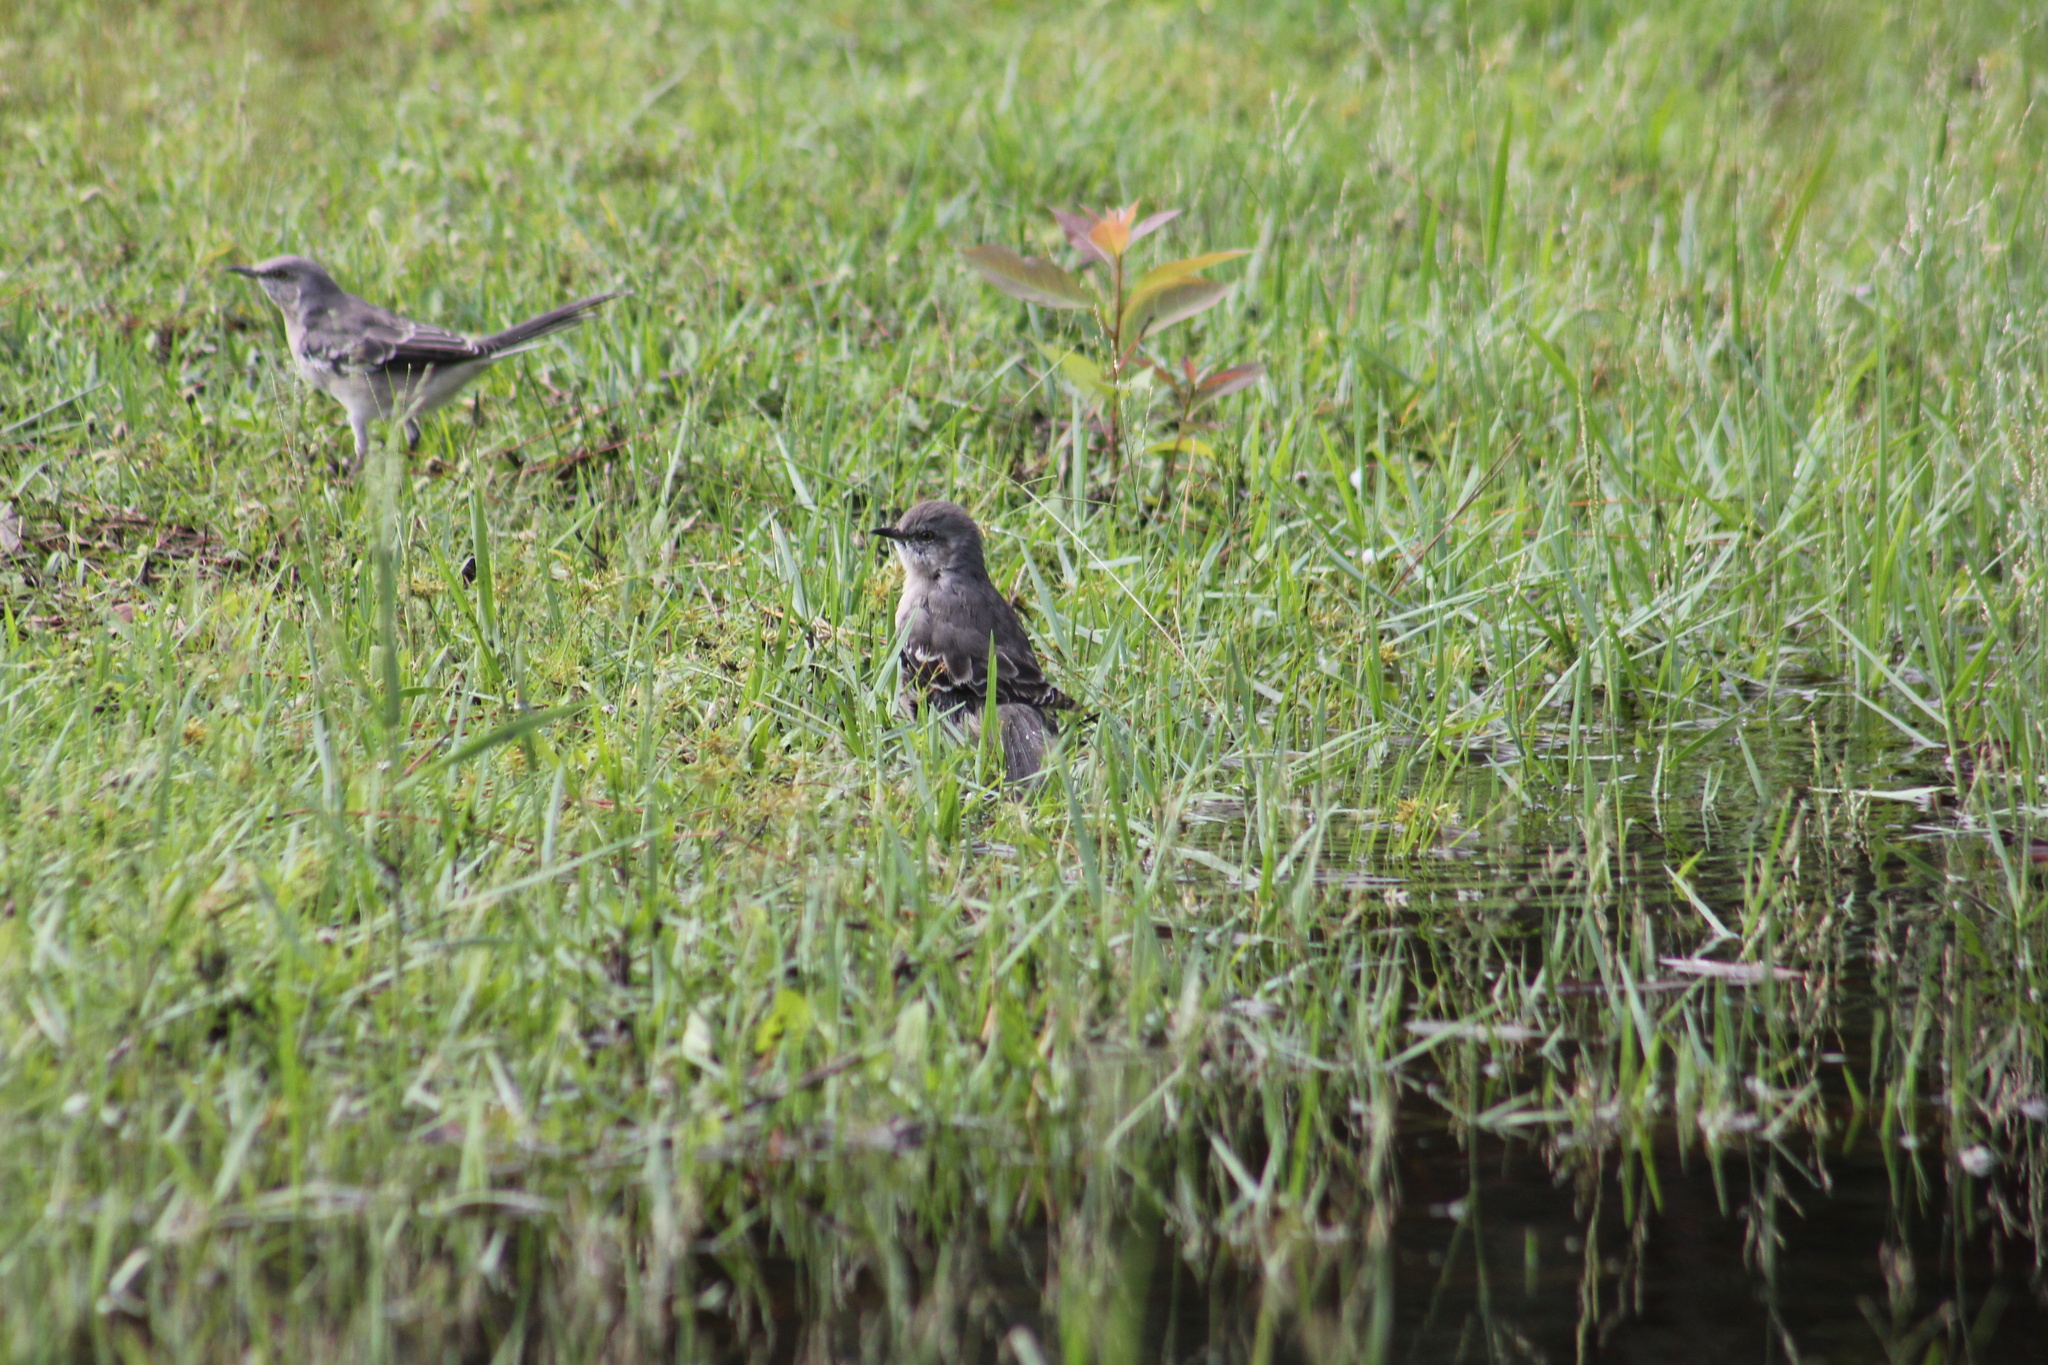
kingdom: Animalia
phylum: Chordata
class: Aves
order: Passeriformes
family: Mimidae
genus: Mimus
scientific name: Mimus polyglottos
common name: Northern mockingbird
